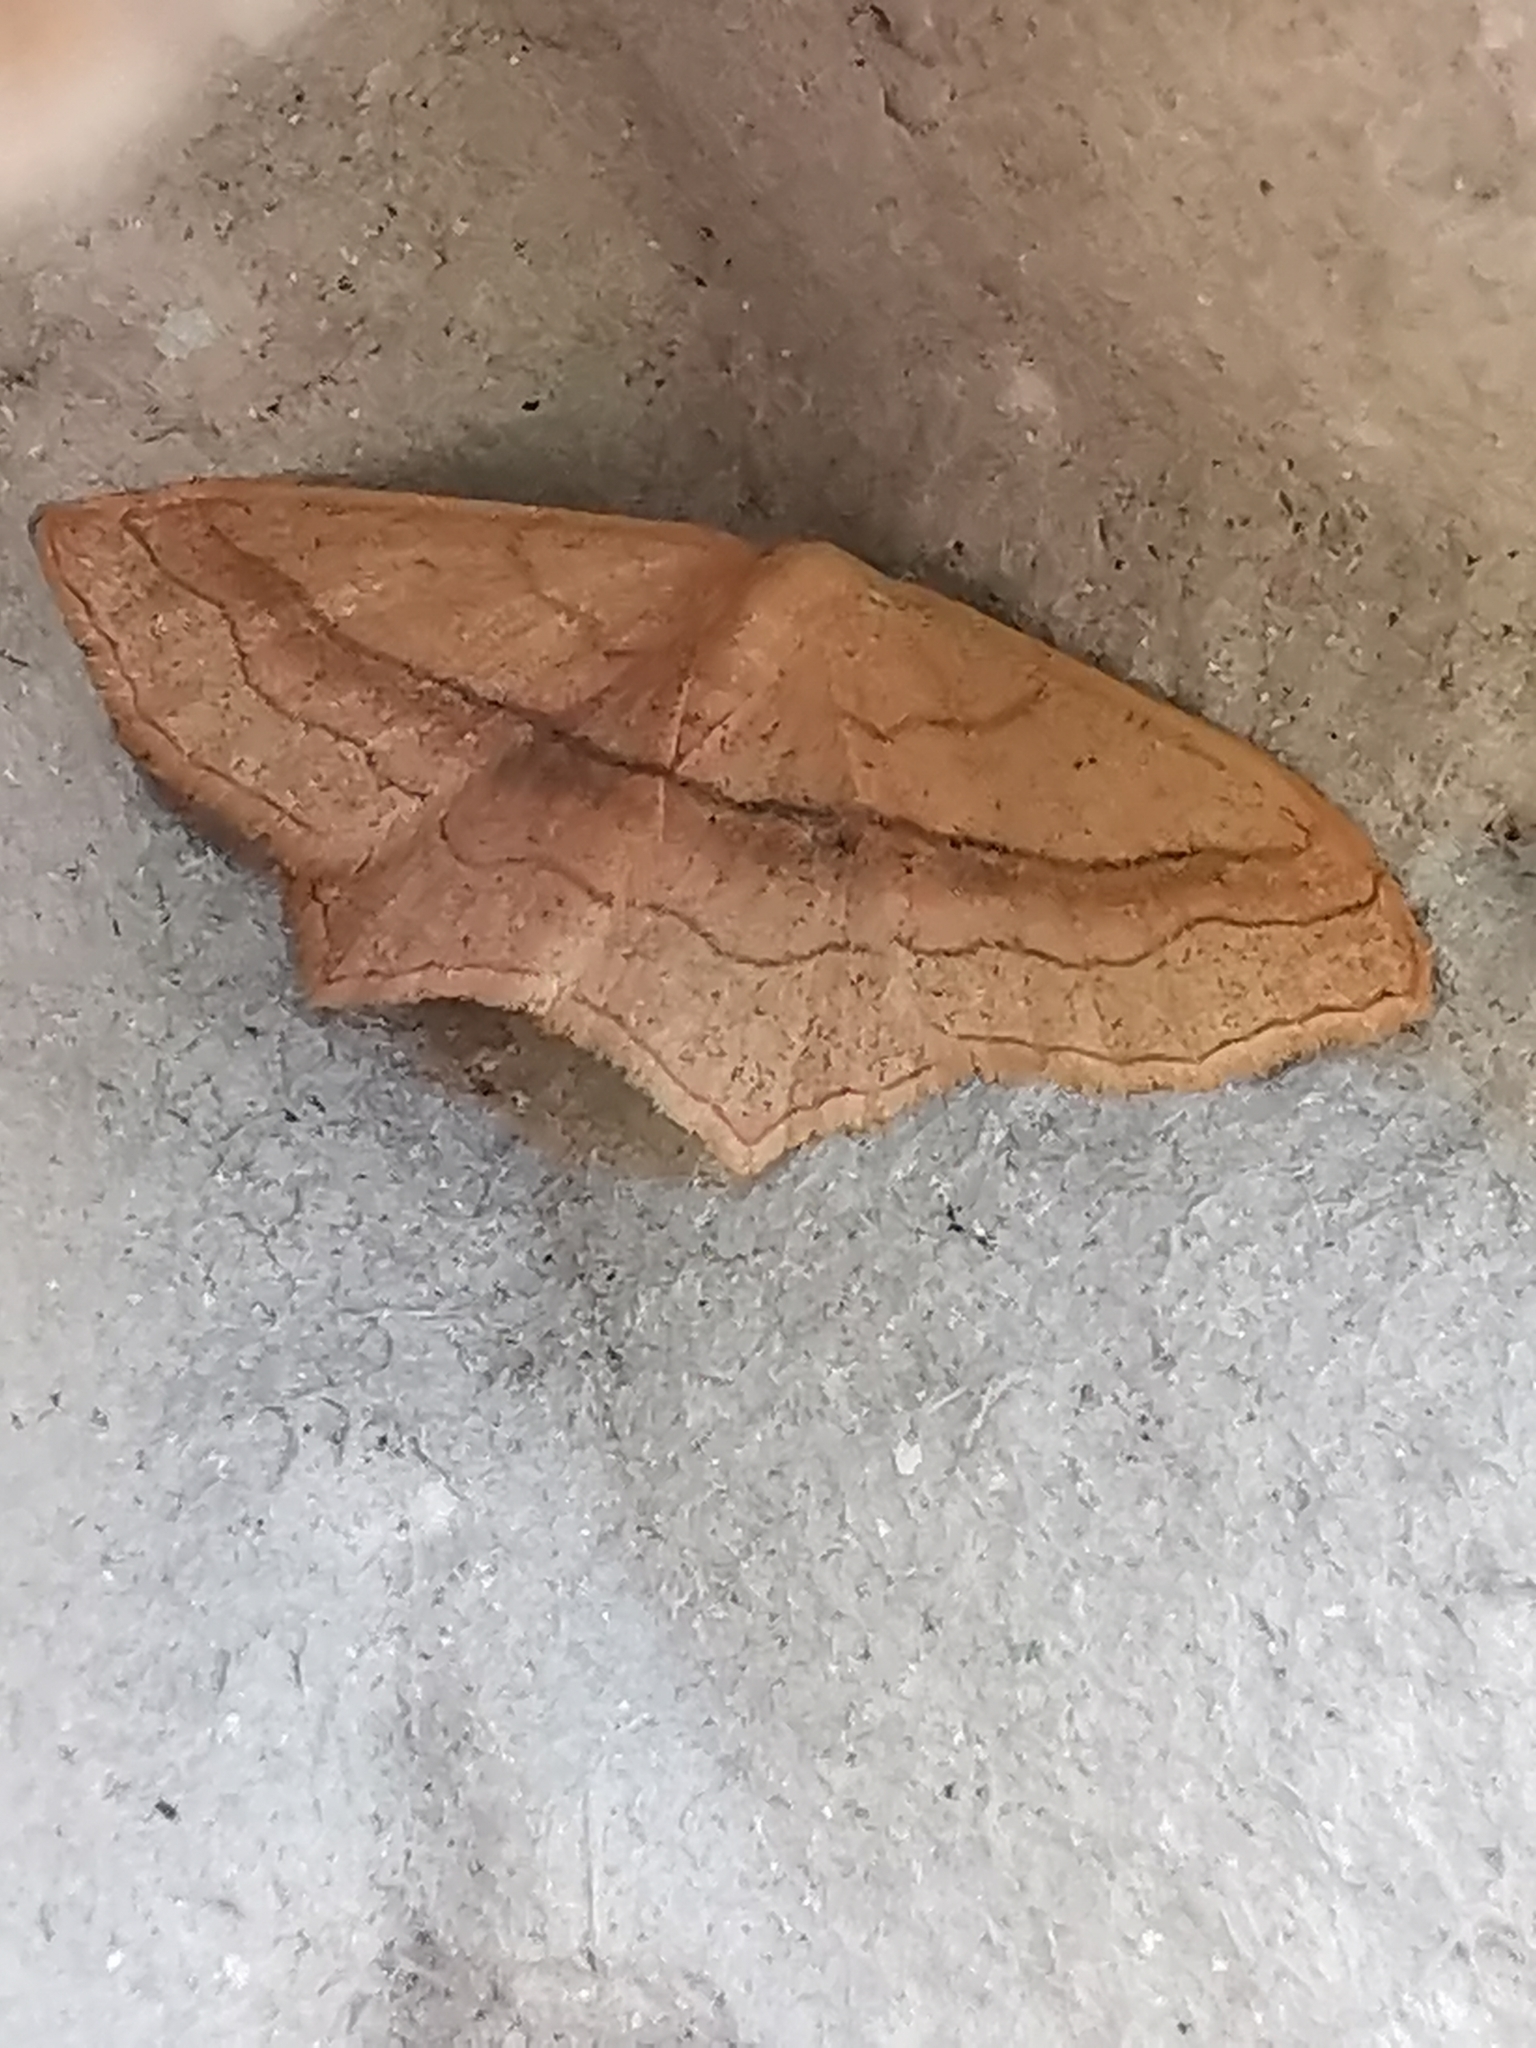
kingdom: Animalia
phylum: Arthropoda
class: Insecta
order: Lepidoptera
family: Geometridae
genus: Scopula
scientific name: Scopula imitaria
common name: Small blood-vein
